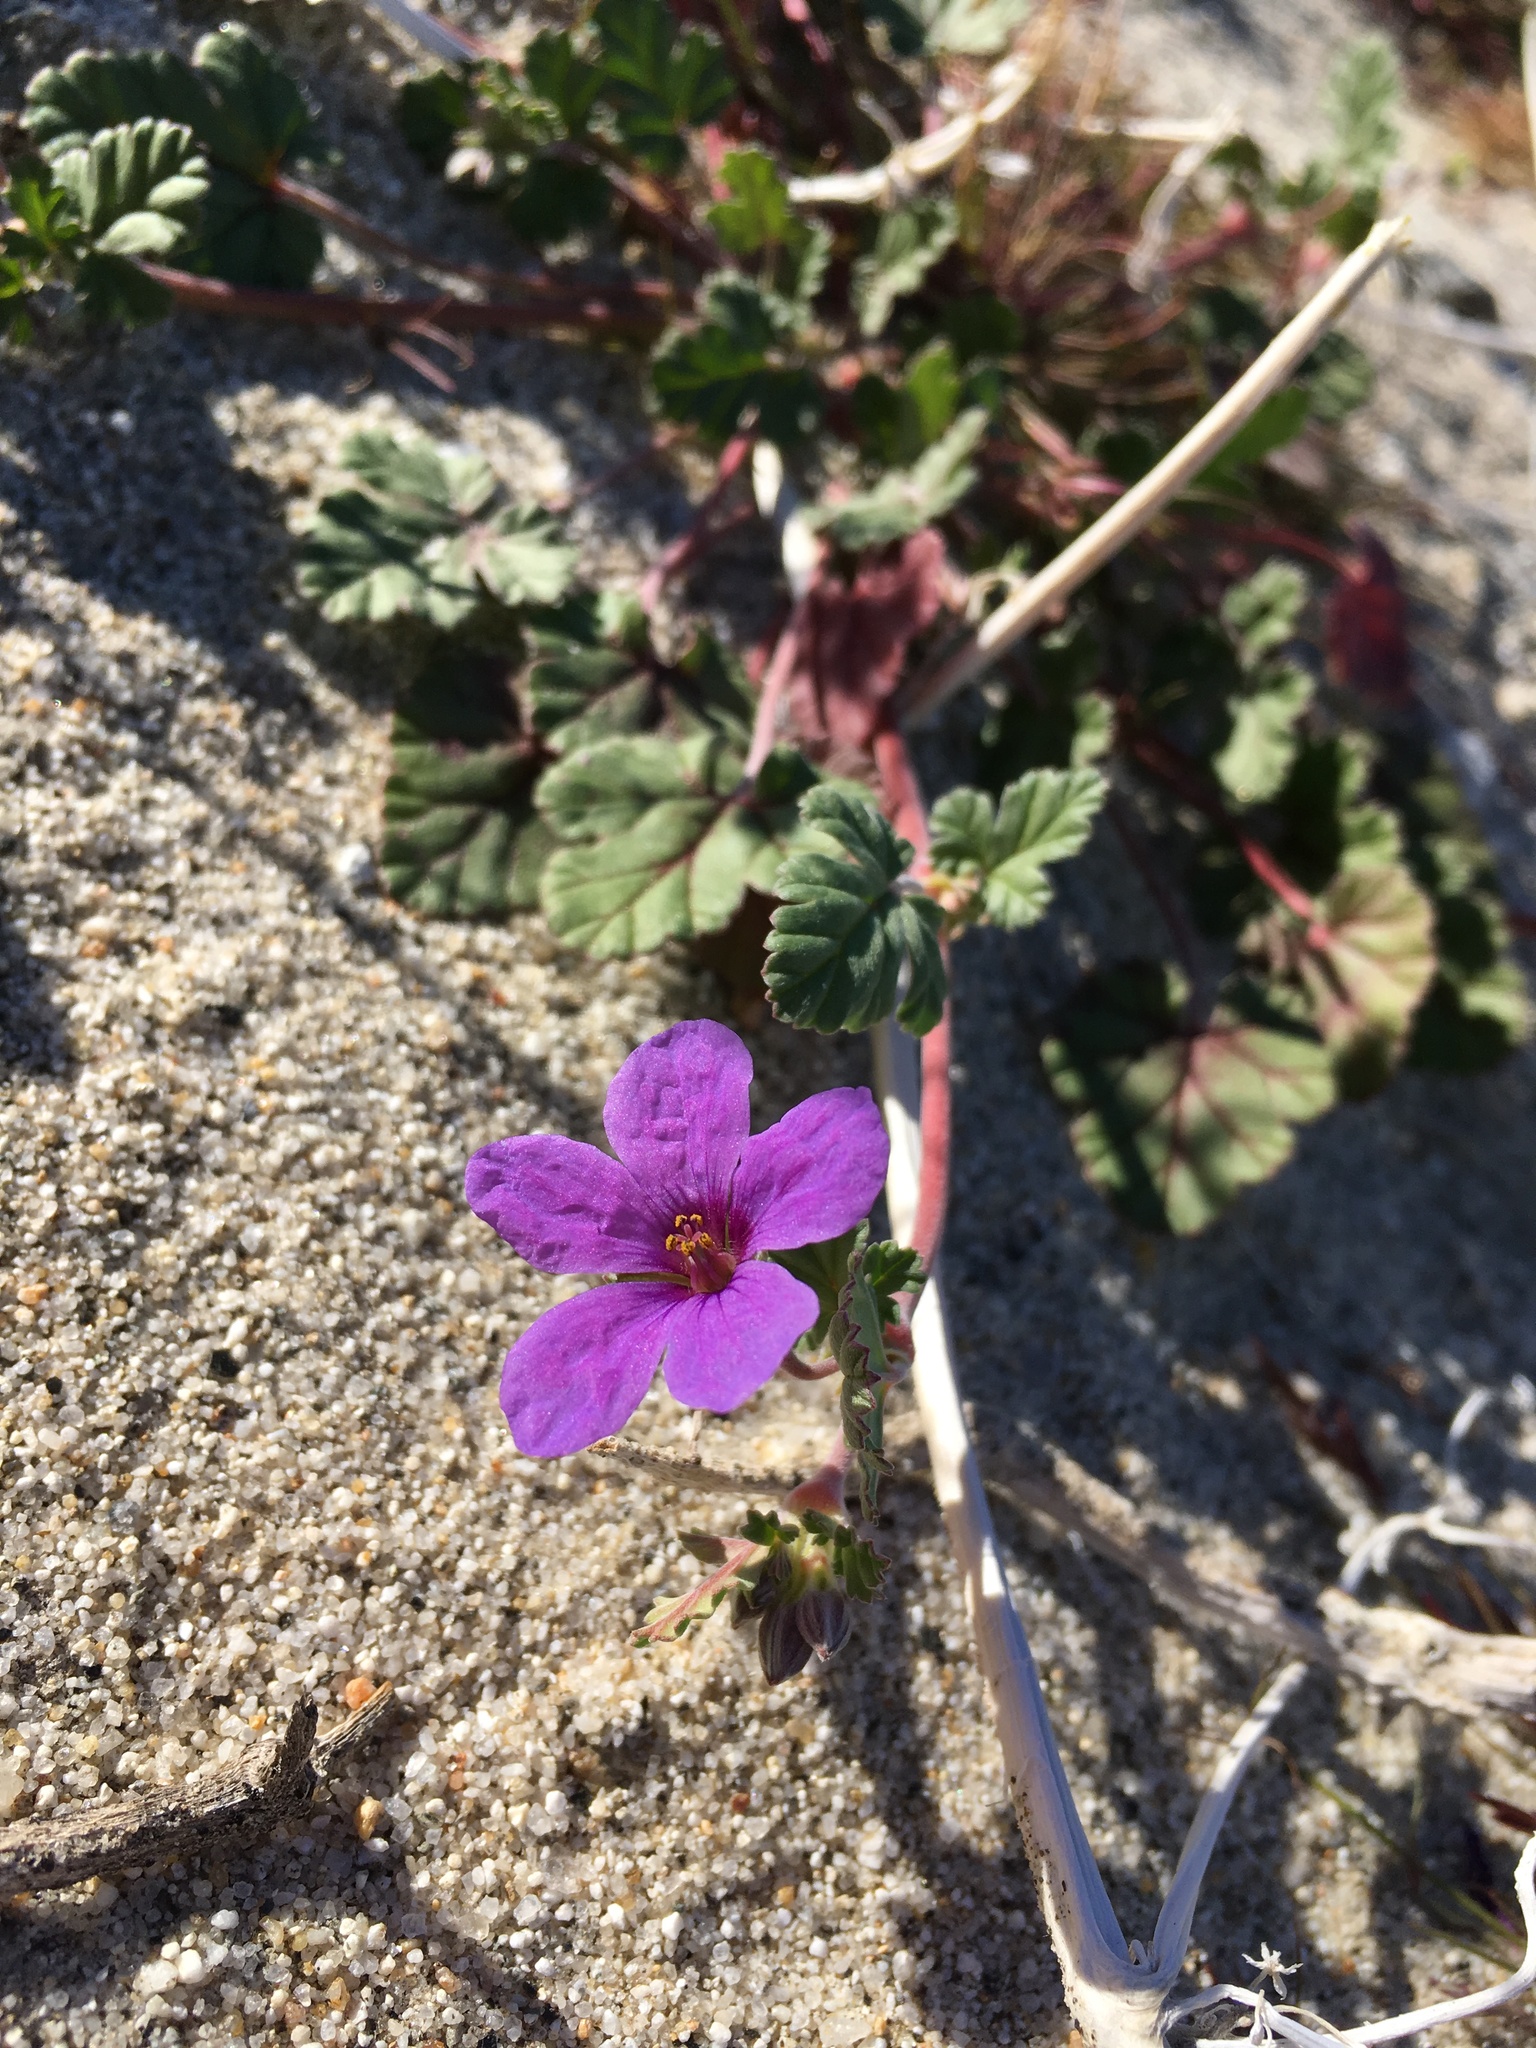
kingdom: Plantae
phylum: Tracheophyta
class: Magnoliopsida
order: Geraniales
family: Geraniaceae
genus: Erodium
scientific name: Erodium texanum
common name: Texas stork's-bill
